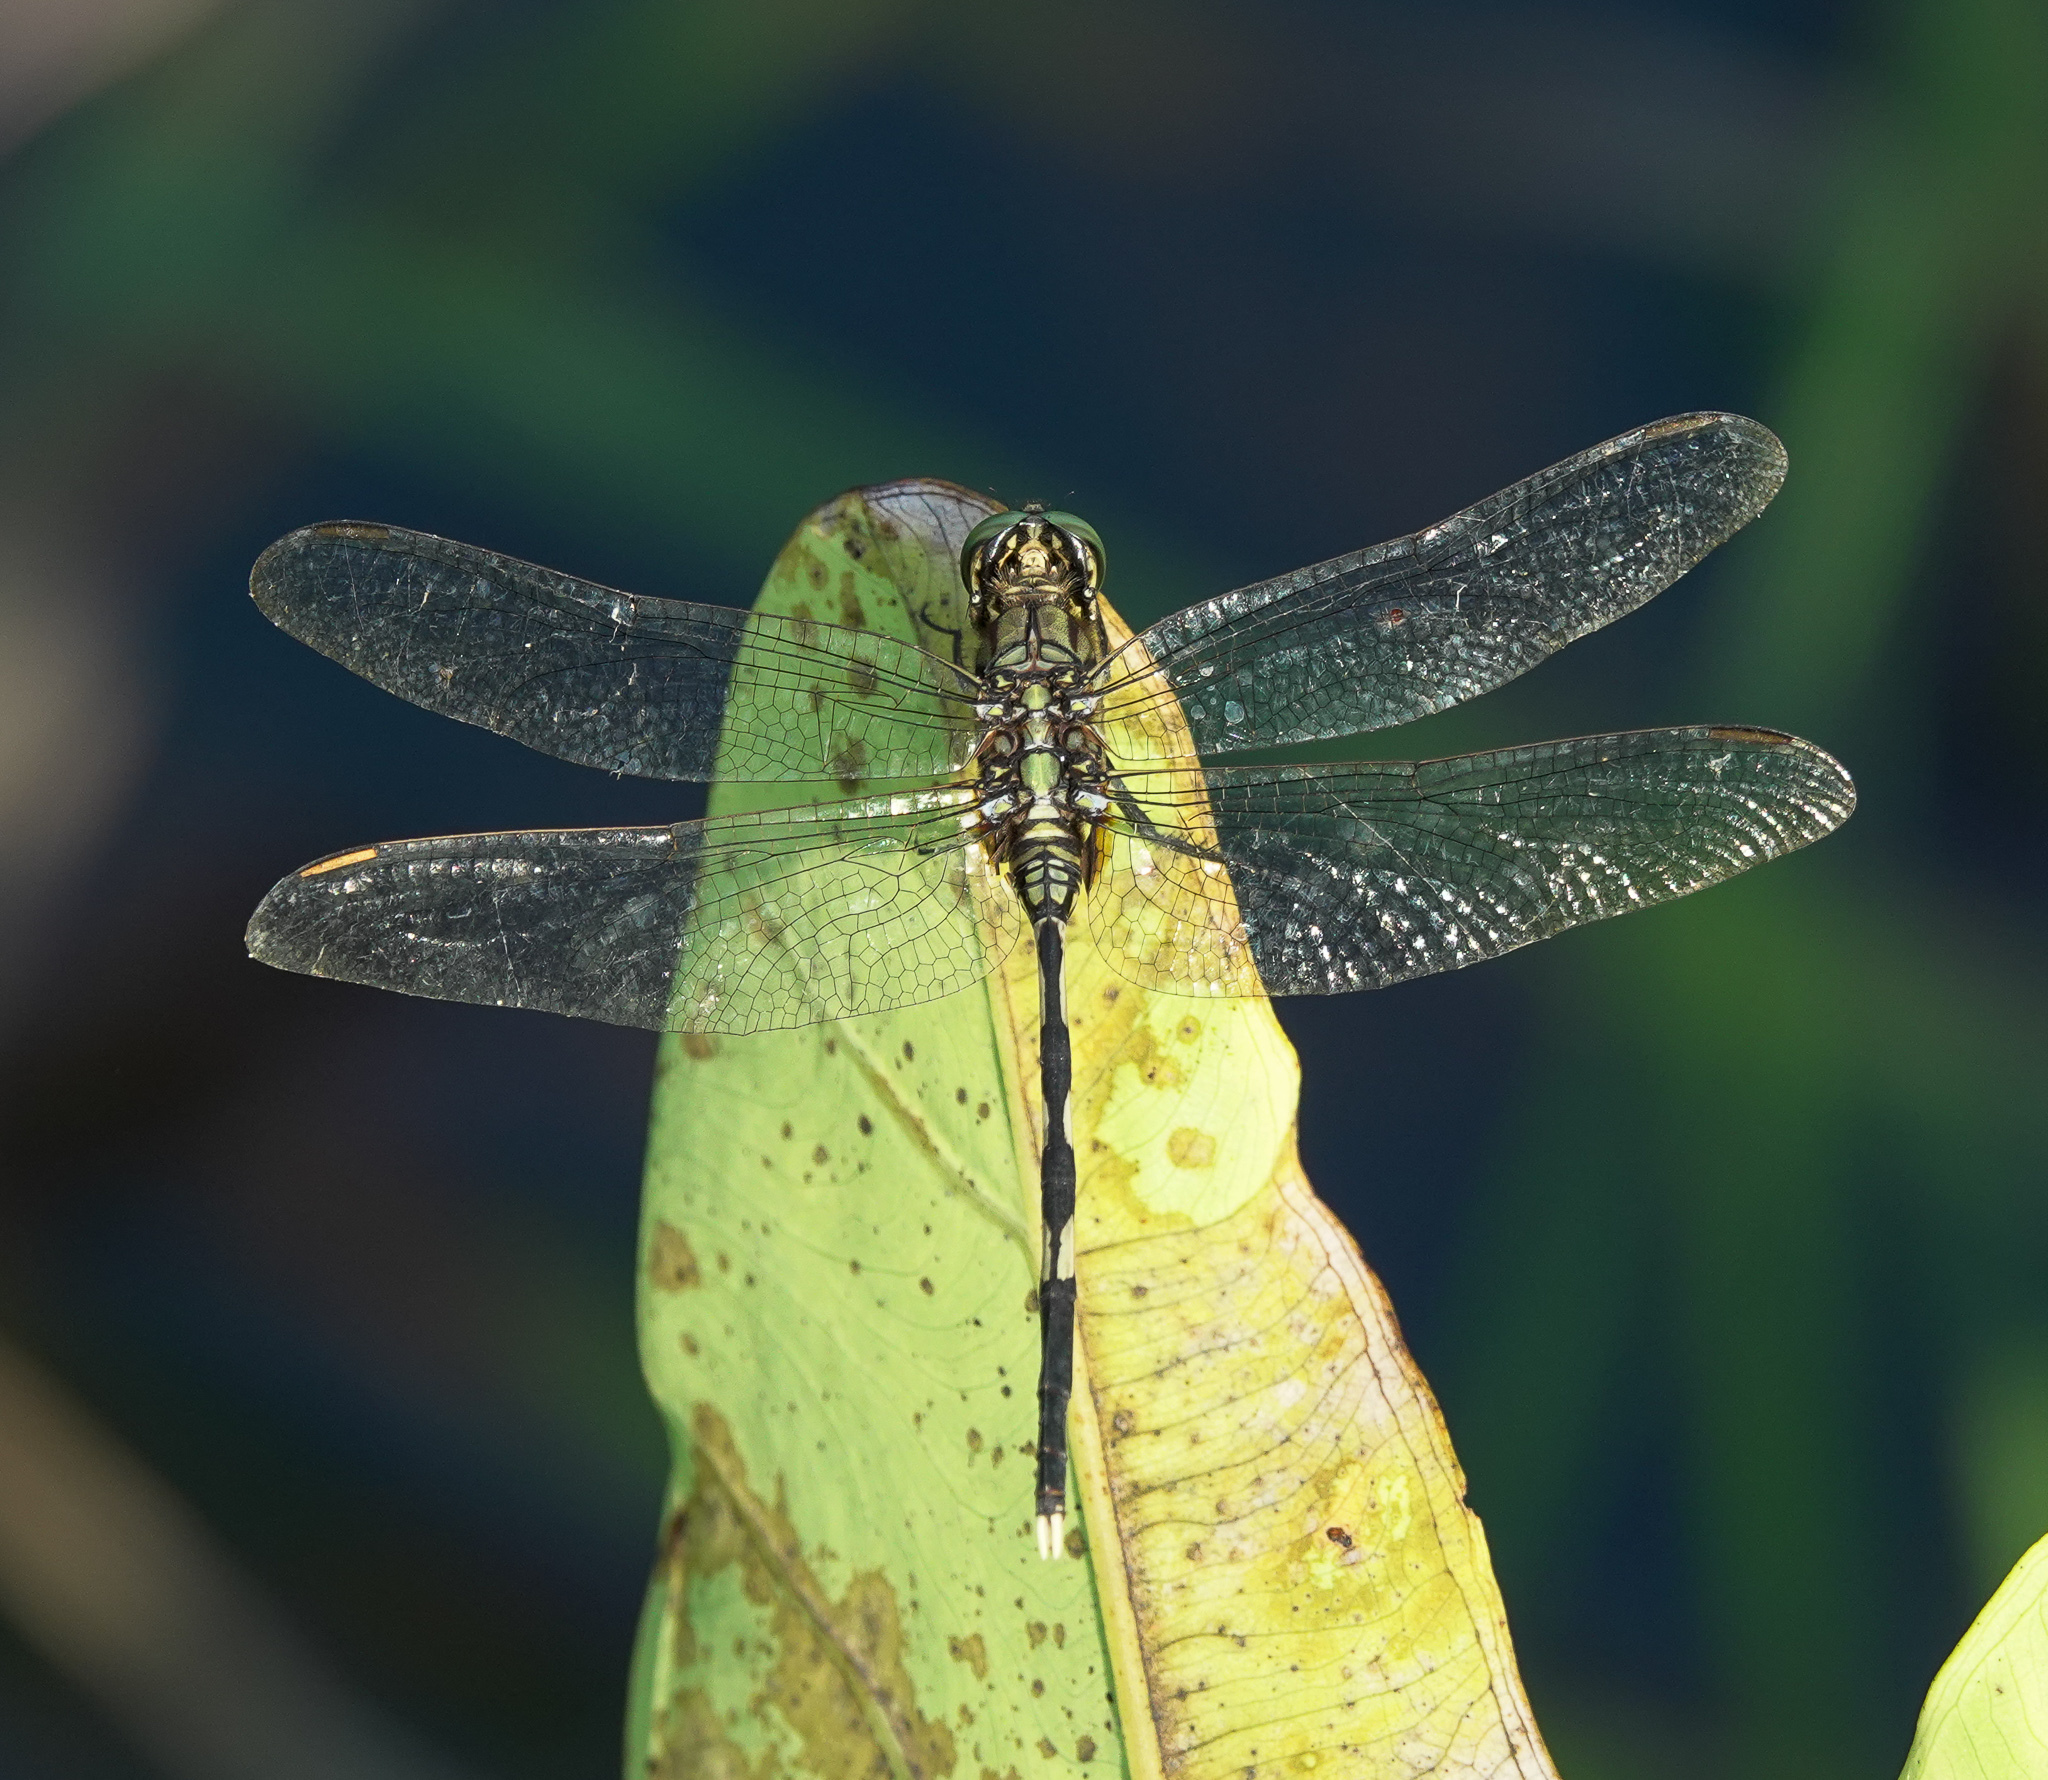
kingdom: Animalia
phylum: Arthropoda
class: Insecta
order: Odonata
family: Libellulidae
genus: Orthetrum
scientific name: Orthetrum sabina
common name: Slender skimmer
